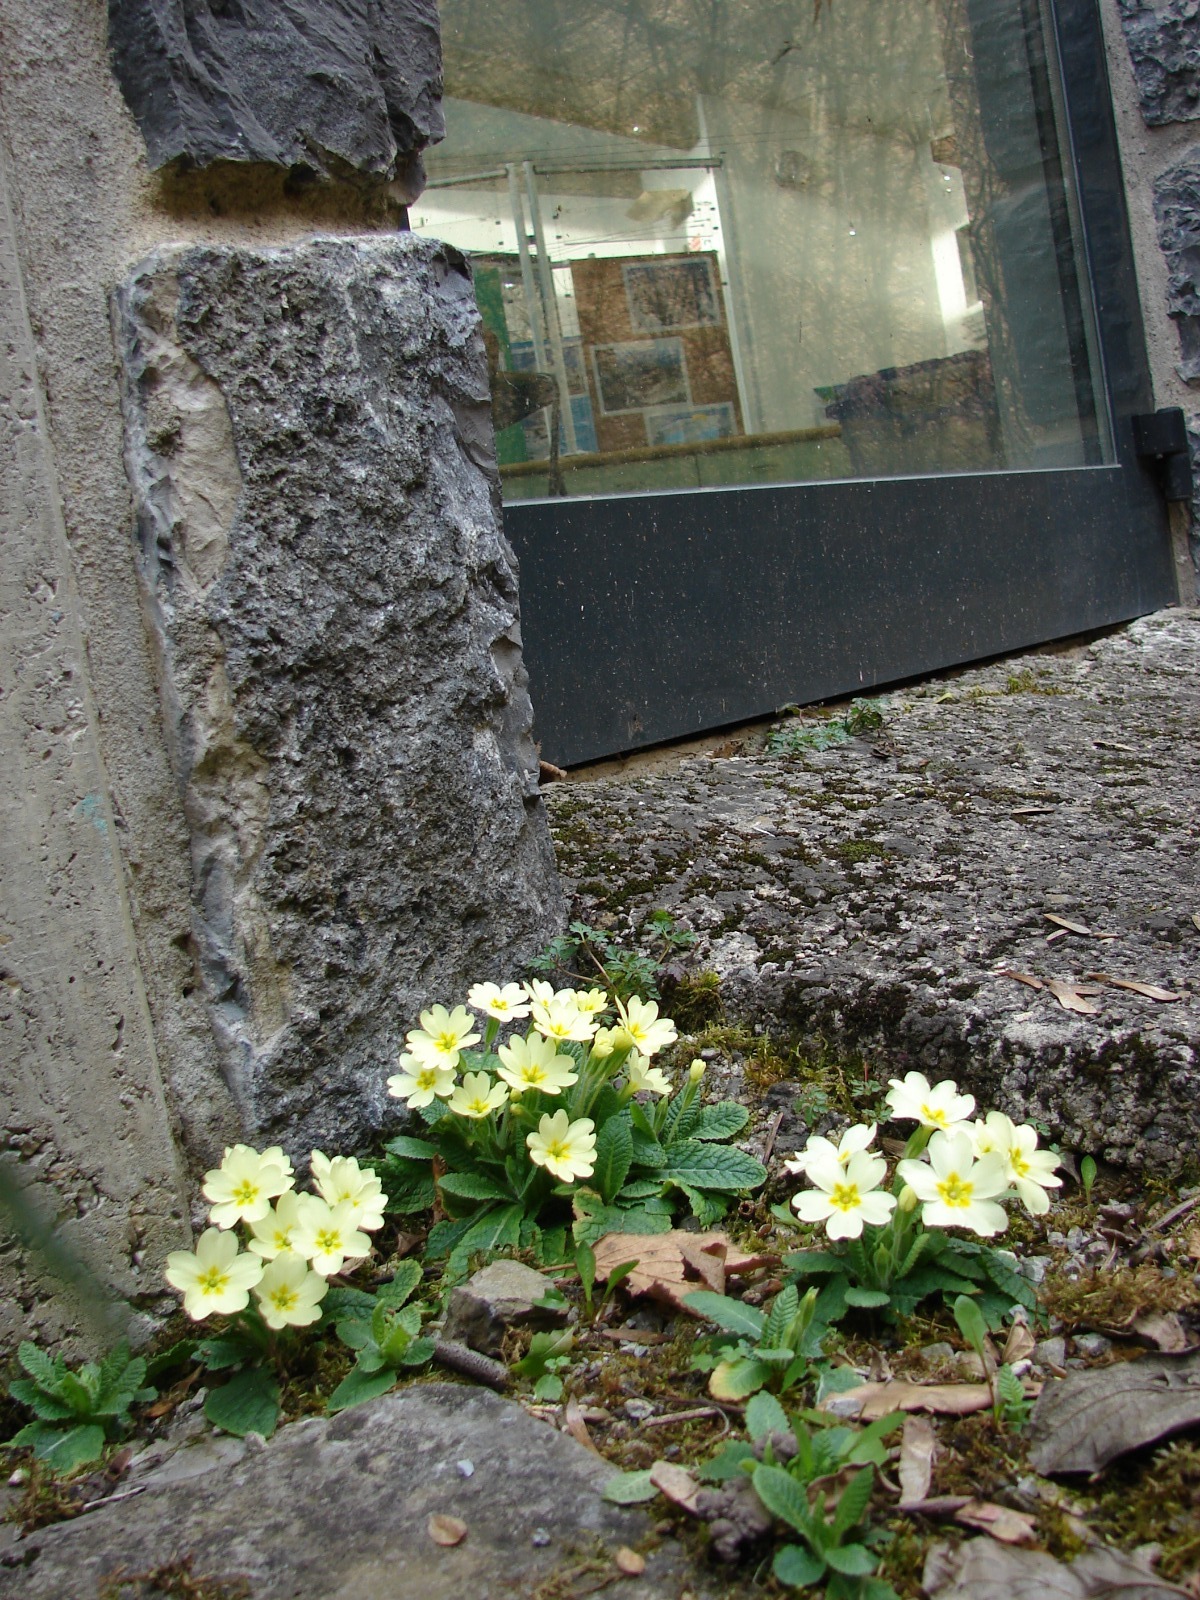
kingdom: Plantae
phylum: Tracheophyta
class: Magnoliopsida
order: Ericales
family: Primulaceae
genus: Primula
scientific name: Primula vulgaris
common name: Primrose
